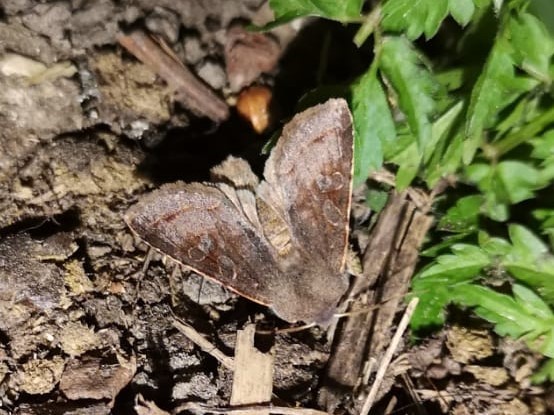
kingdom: Animalia
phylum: Arthropoda
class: Insecta
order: Lepidoptera
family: Noctuidae
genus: Orthosia
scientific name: Orthosia incerta
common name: Clouded drab
